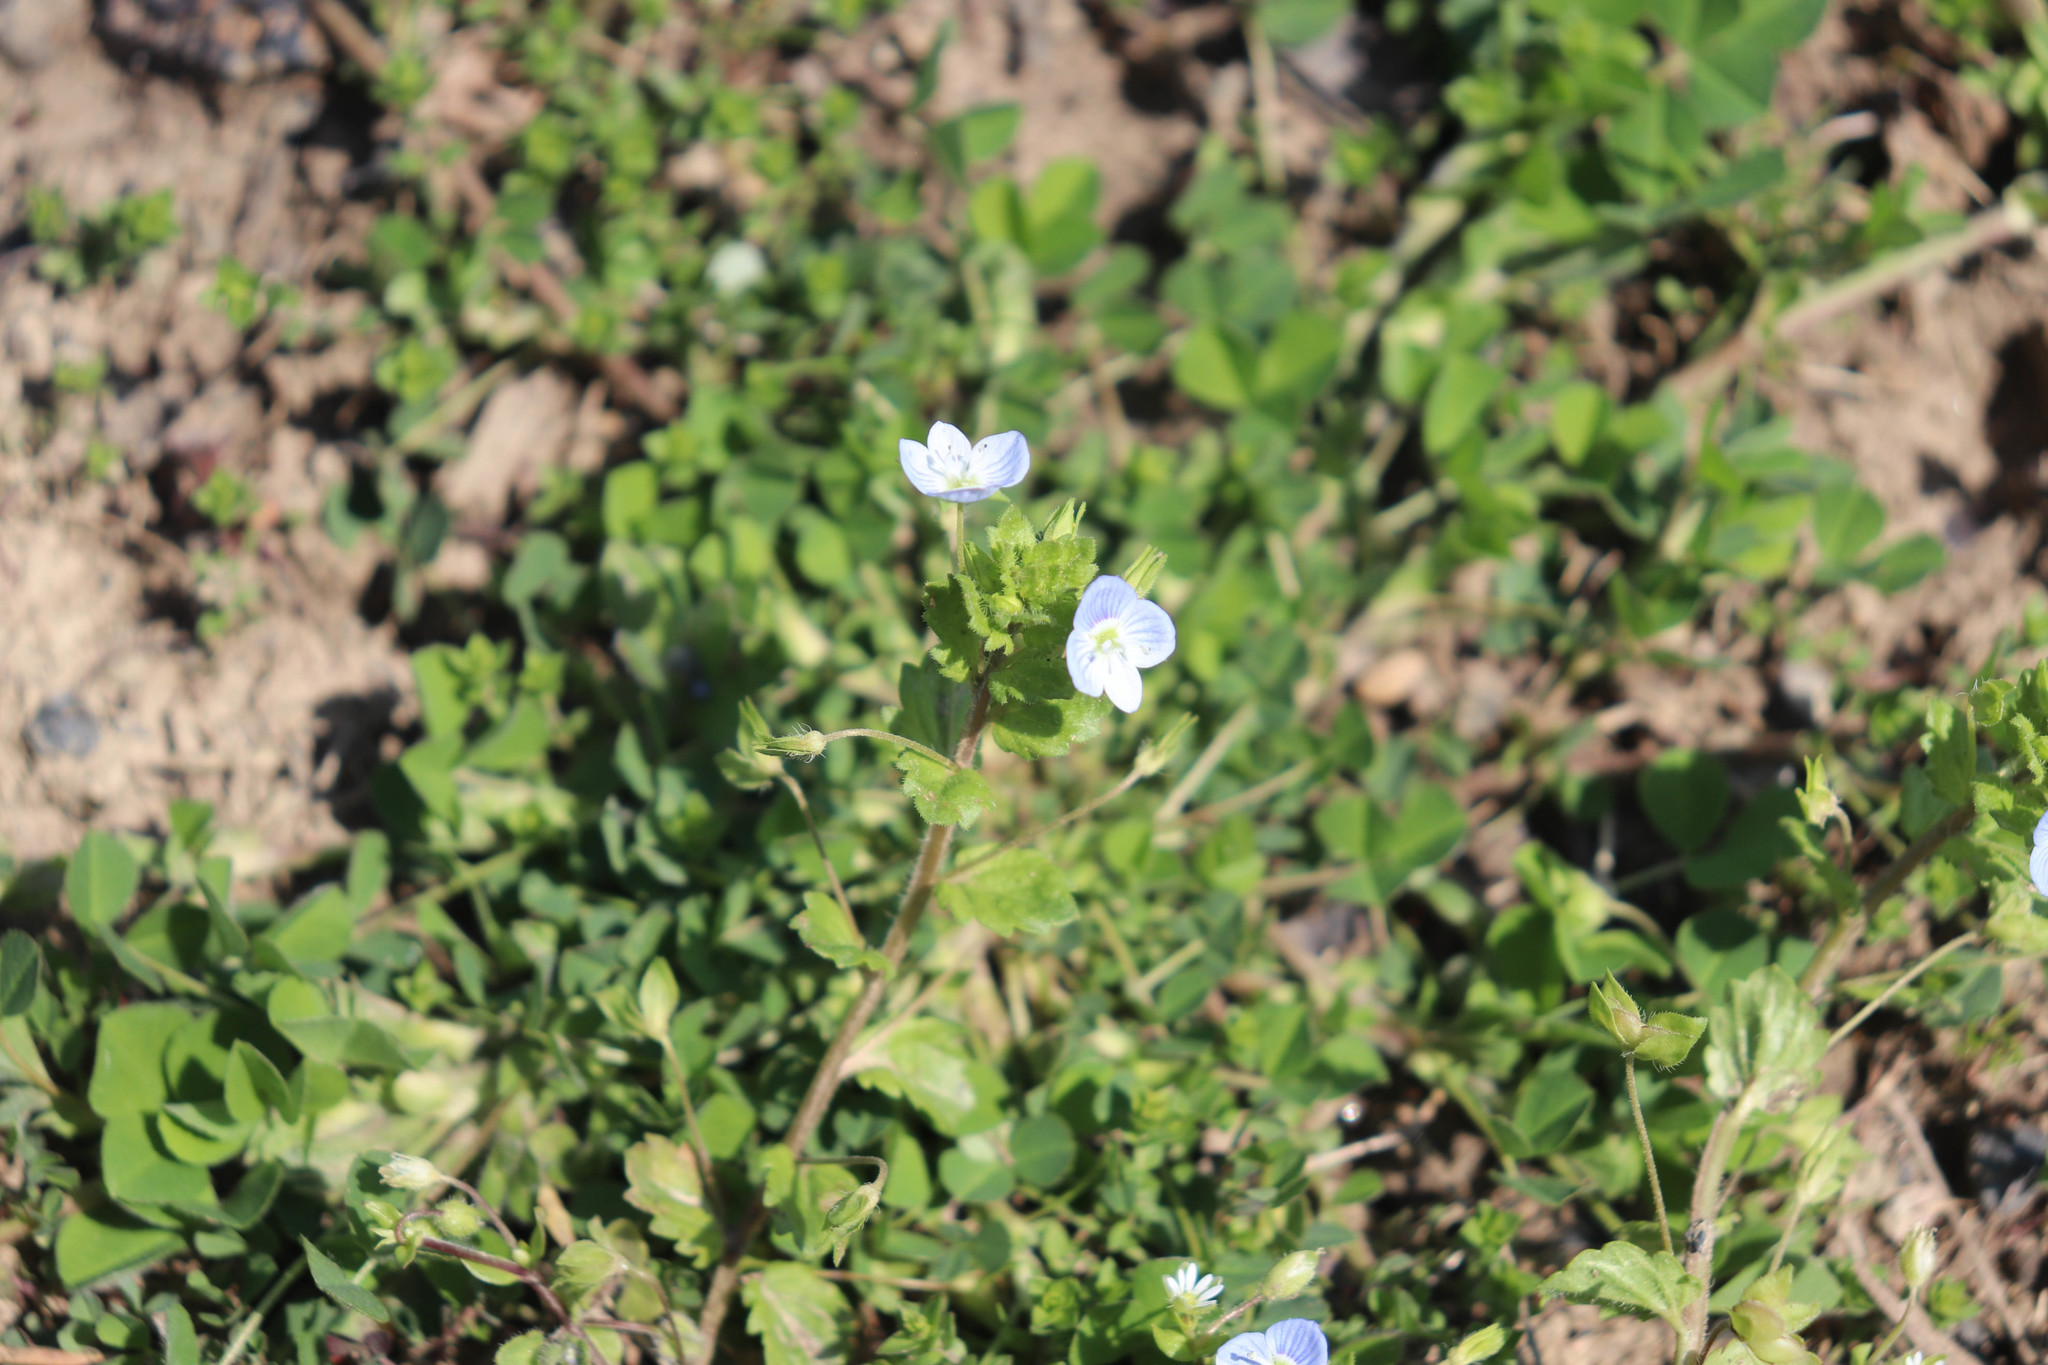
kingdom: Plantae
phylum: Tracheophyta
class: Magnoliopsida
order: Lamiales
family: Plantaginaceae
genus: Veronica
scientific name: Veronica persica
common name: Common field-speedwell
